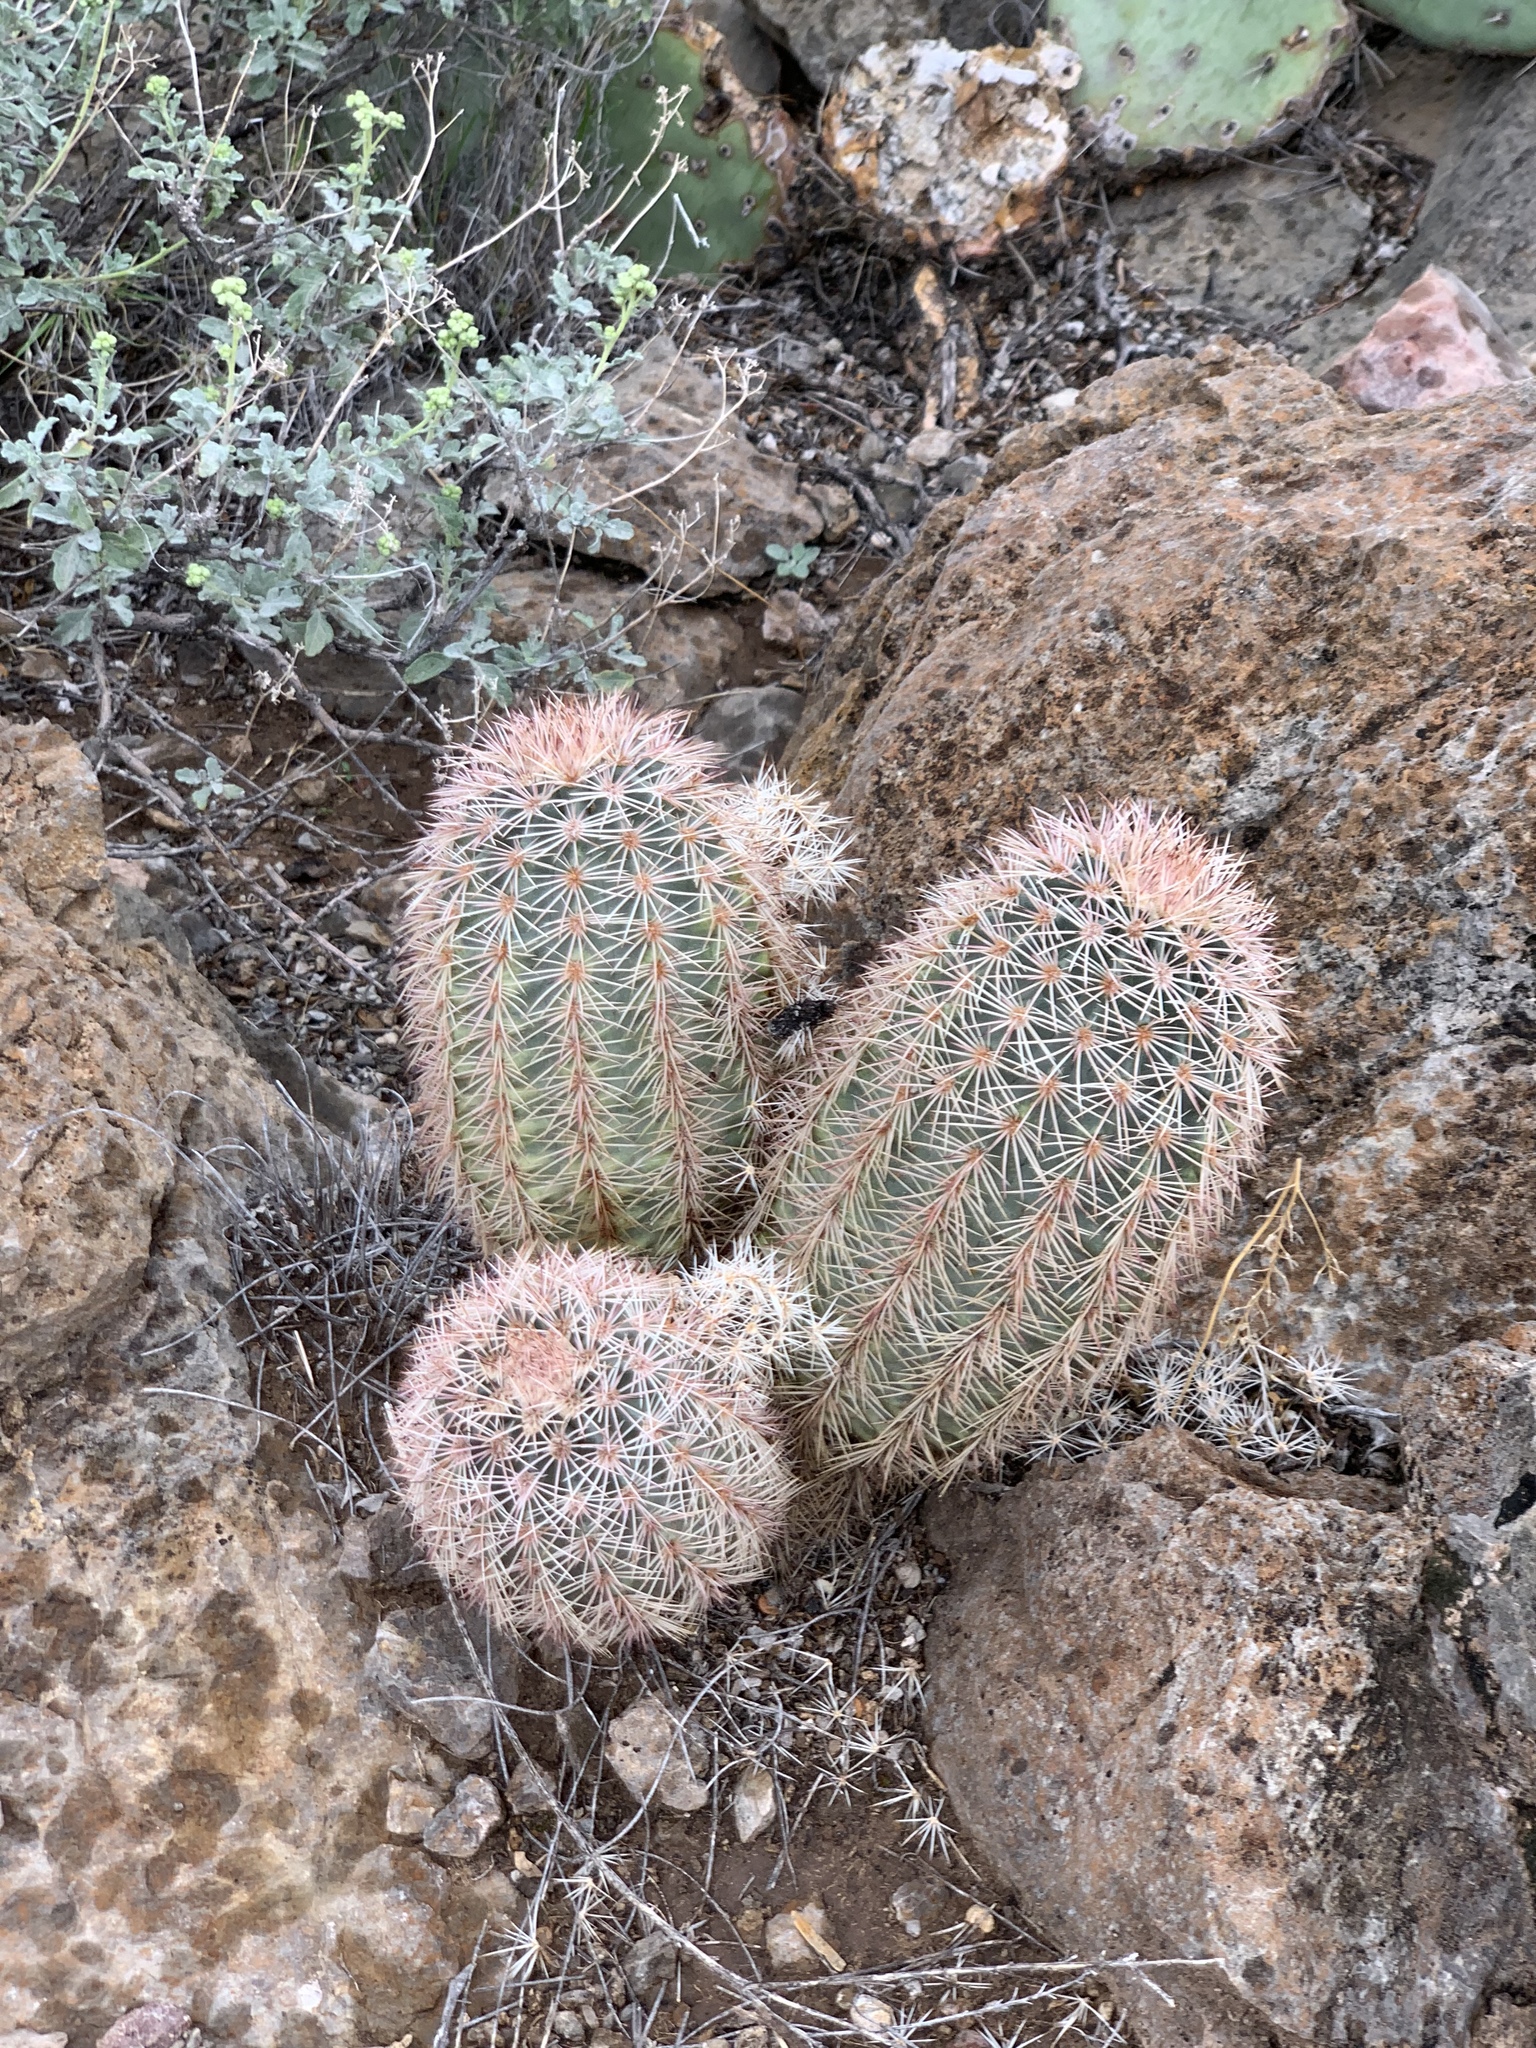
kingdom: Plantae
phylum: Tracheophyta
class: Magnoliopsida
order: Caryophyllales
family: Cactaceae
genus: Echinocereus
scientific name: Echinocereus dasyacanthus
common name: Spiny hedgehog cactus
